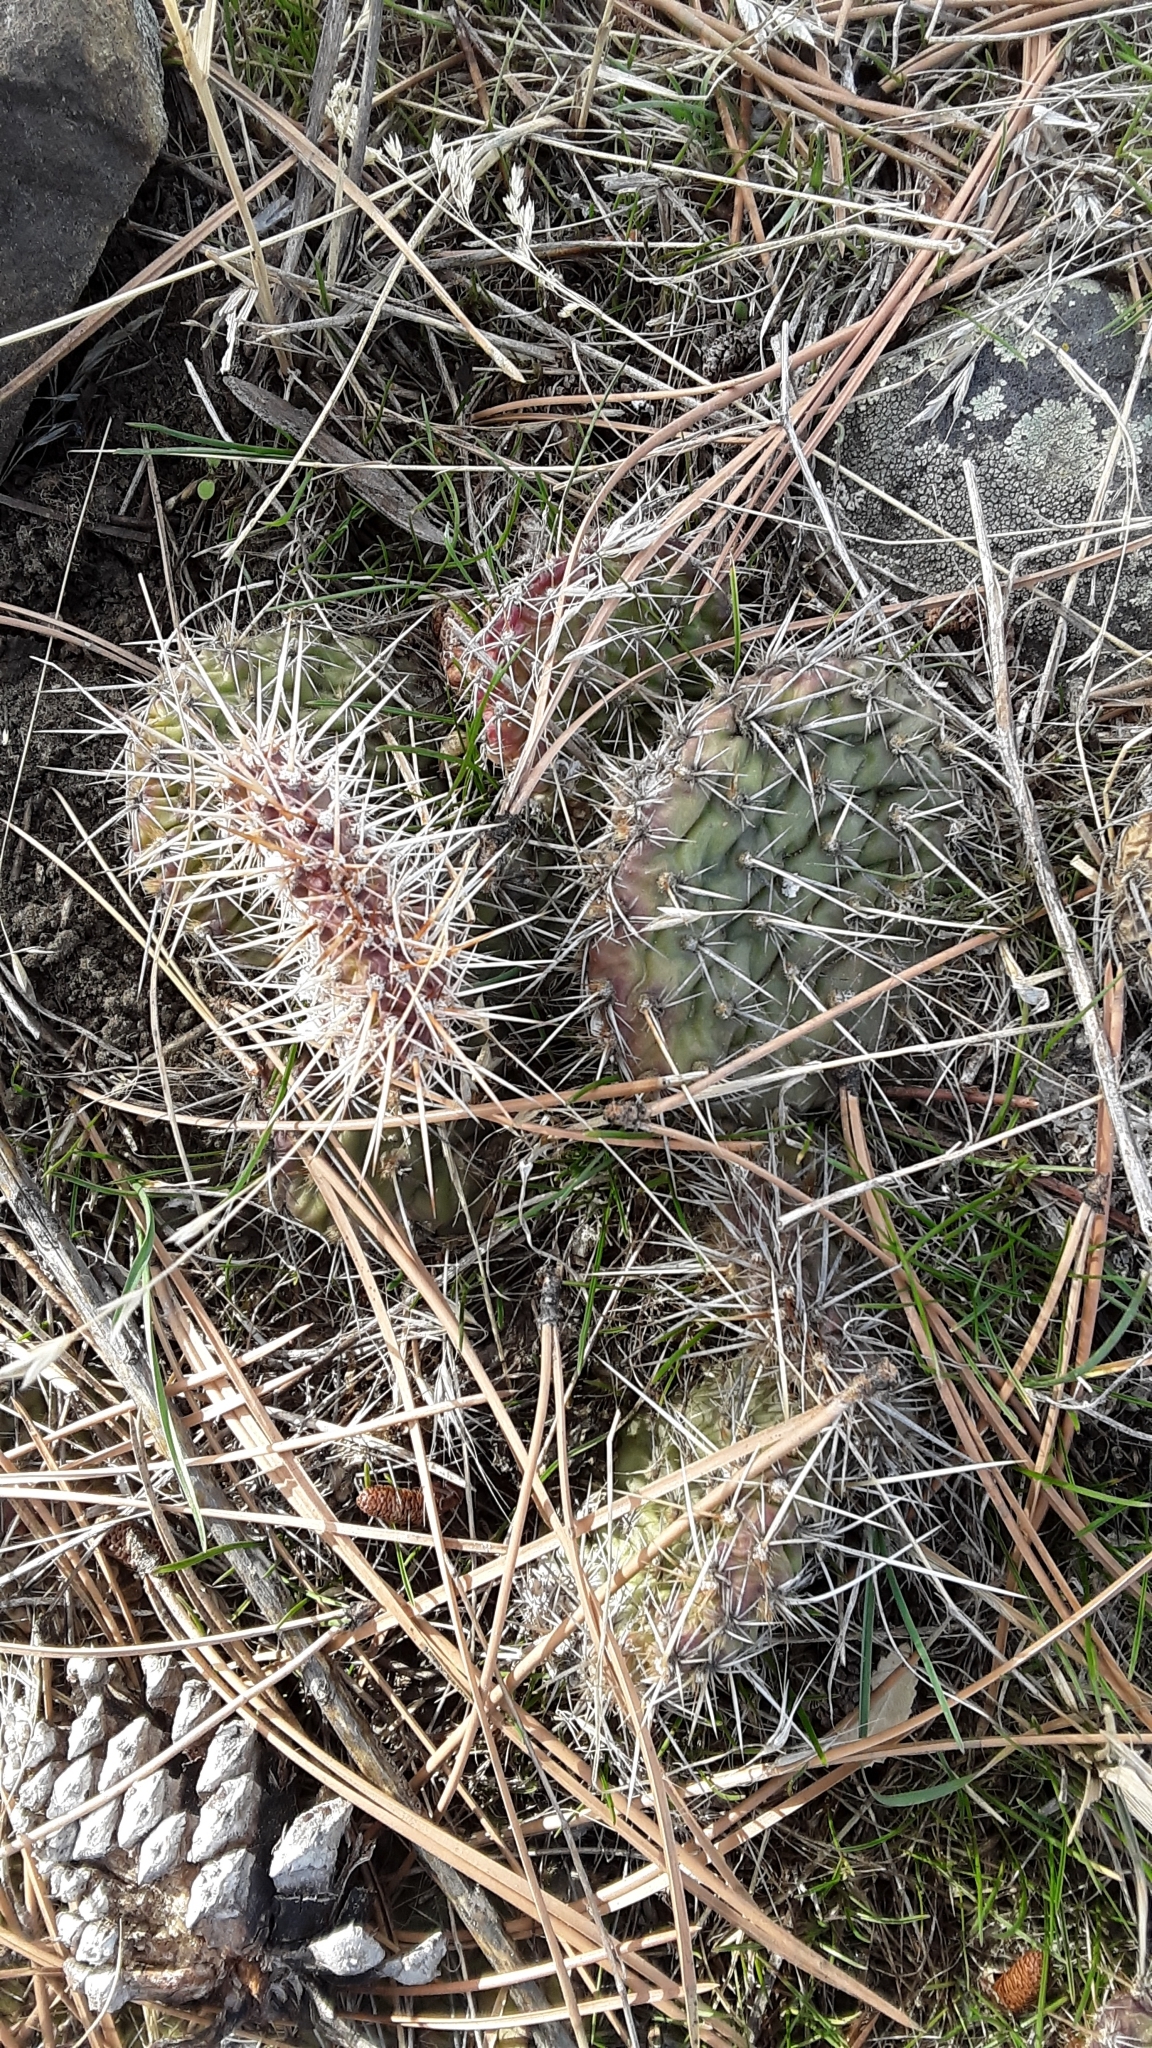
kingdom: Plantae
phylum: Tracheophyta
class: Magnoliopsida
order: Caryophyllales
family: Cactaceae
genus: Opuntia
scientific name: Opuntia polyacantha
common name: Plains prickly-pear
